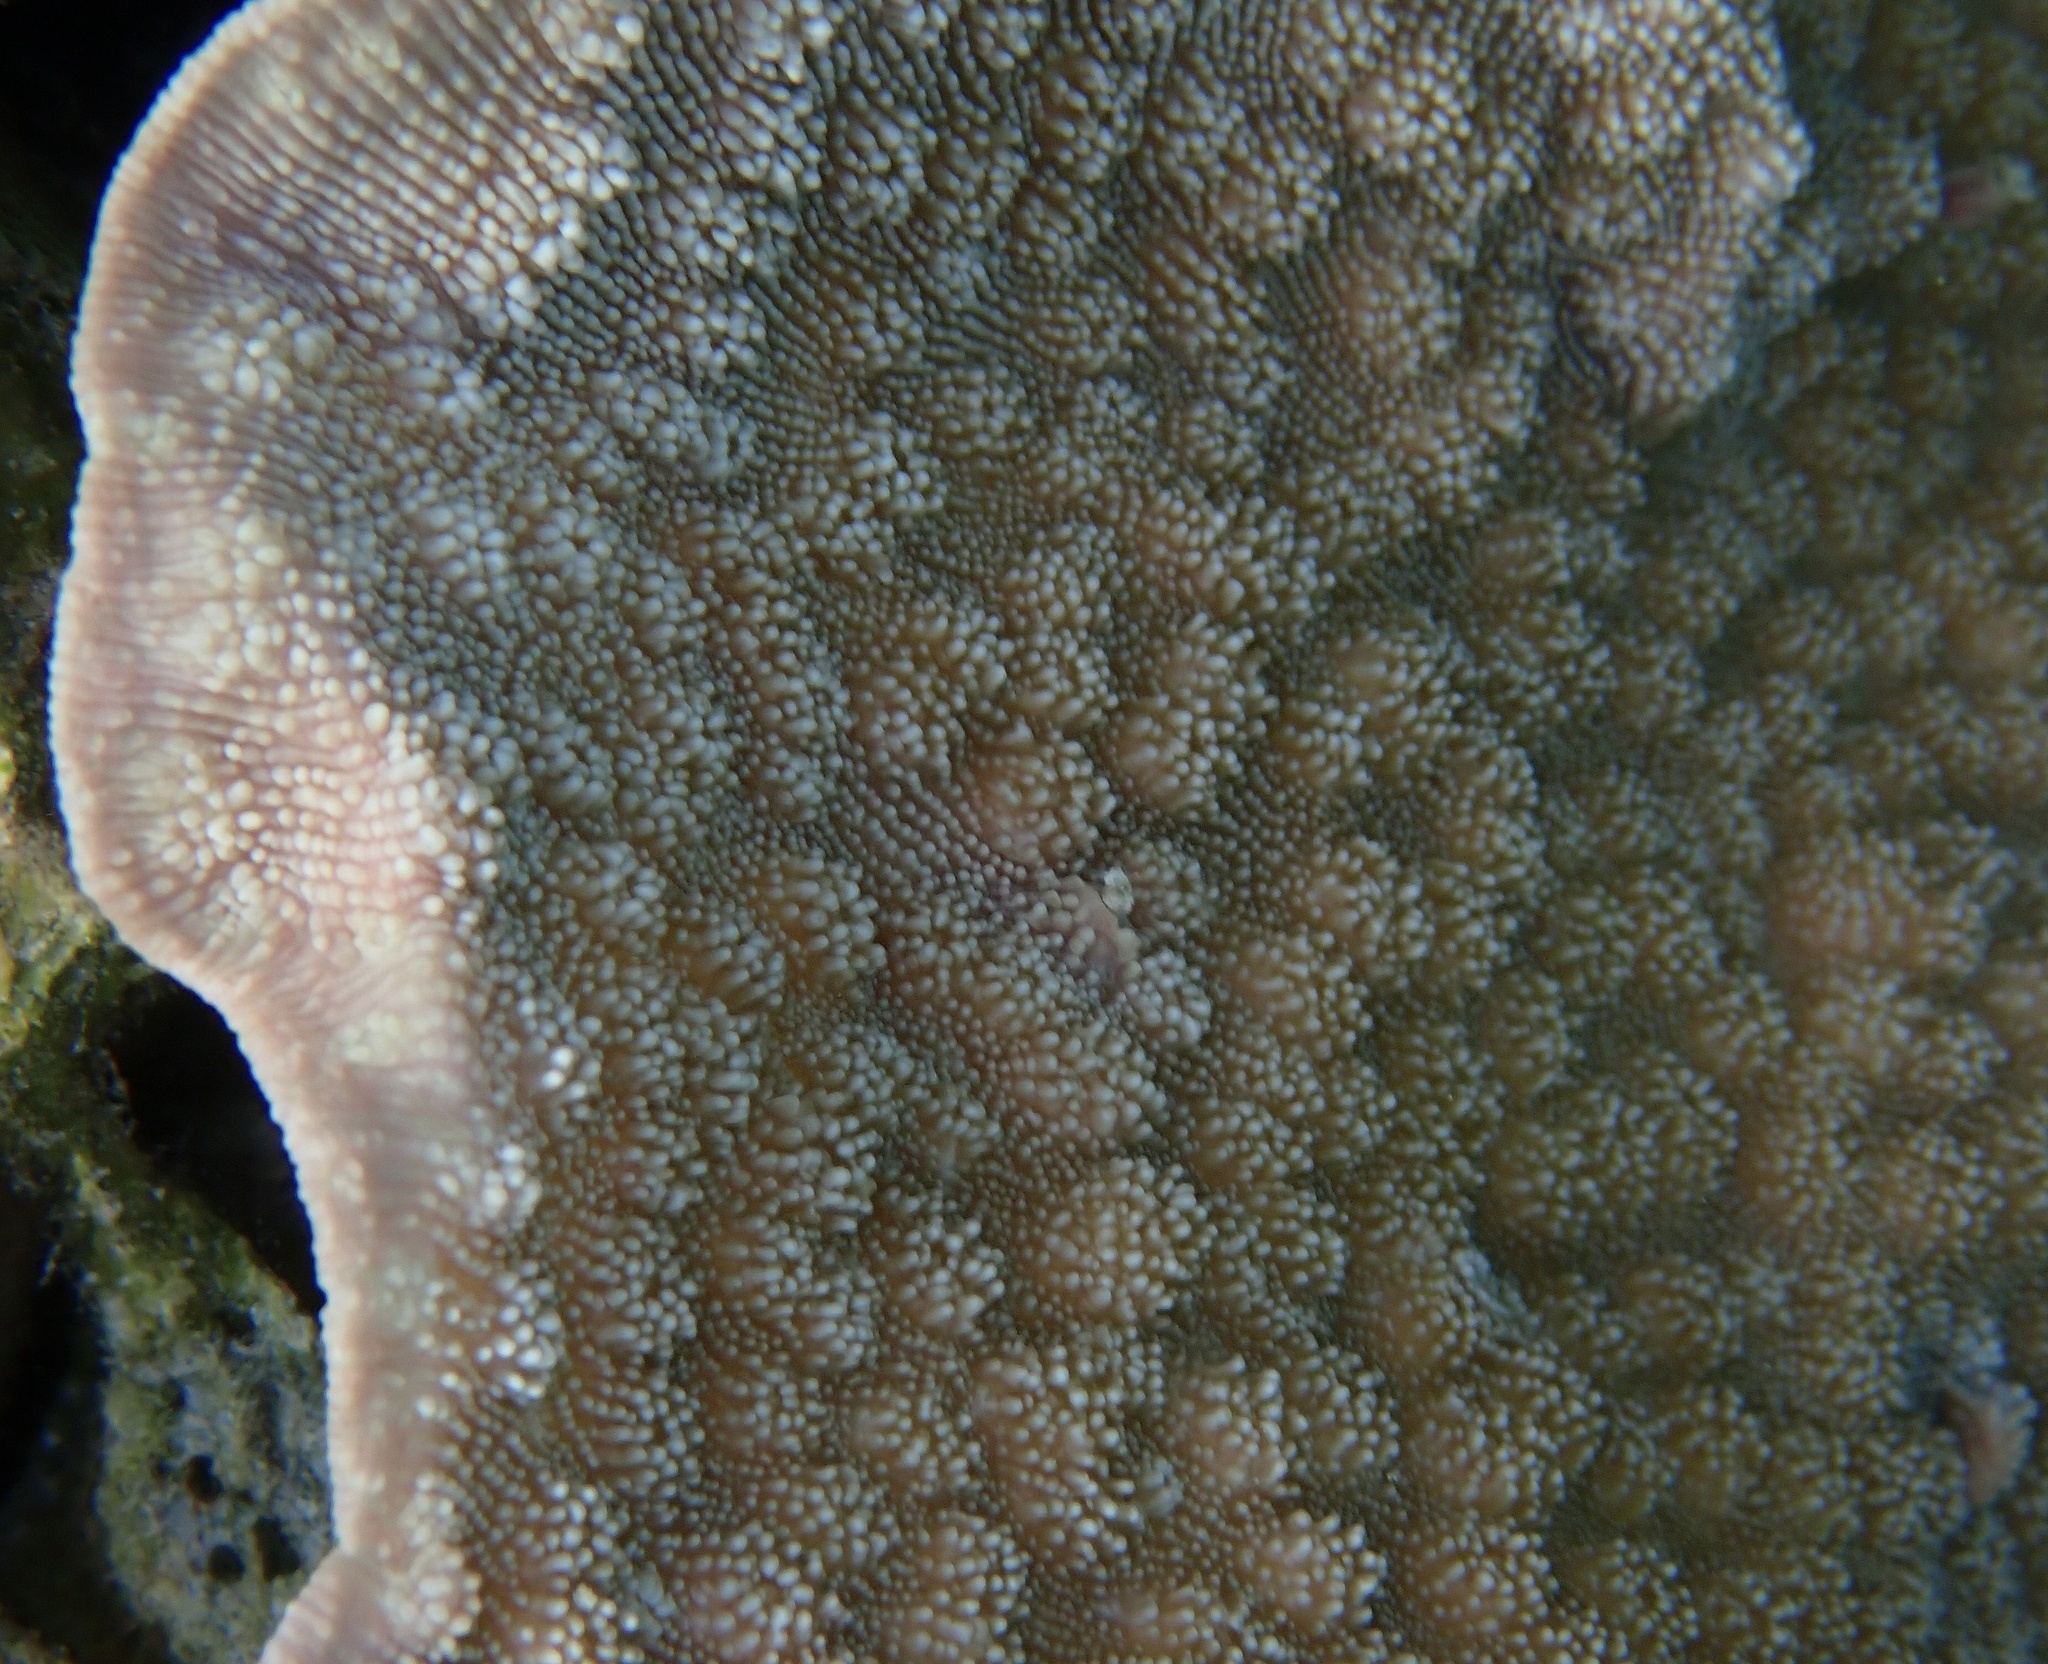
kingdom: Animalia
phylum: Cnidaria
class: Anthozoa
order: Scleractinia
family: Merulinidae
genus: Echinopora
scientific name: Echinopora lamellosa
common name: Hedgehog coral
